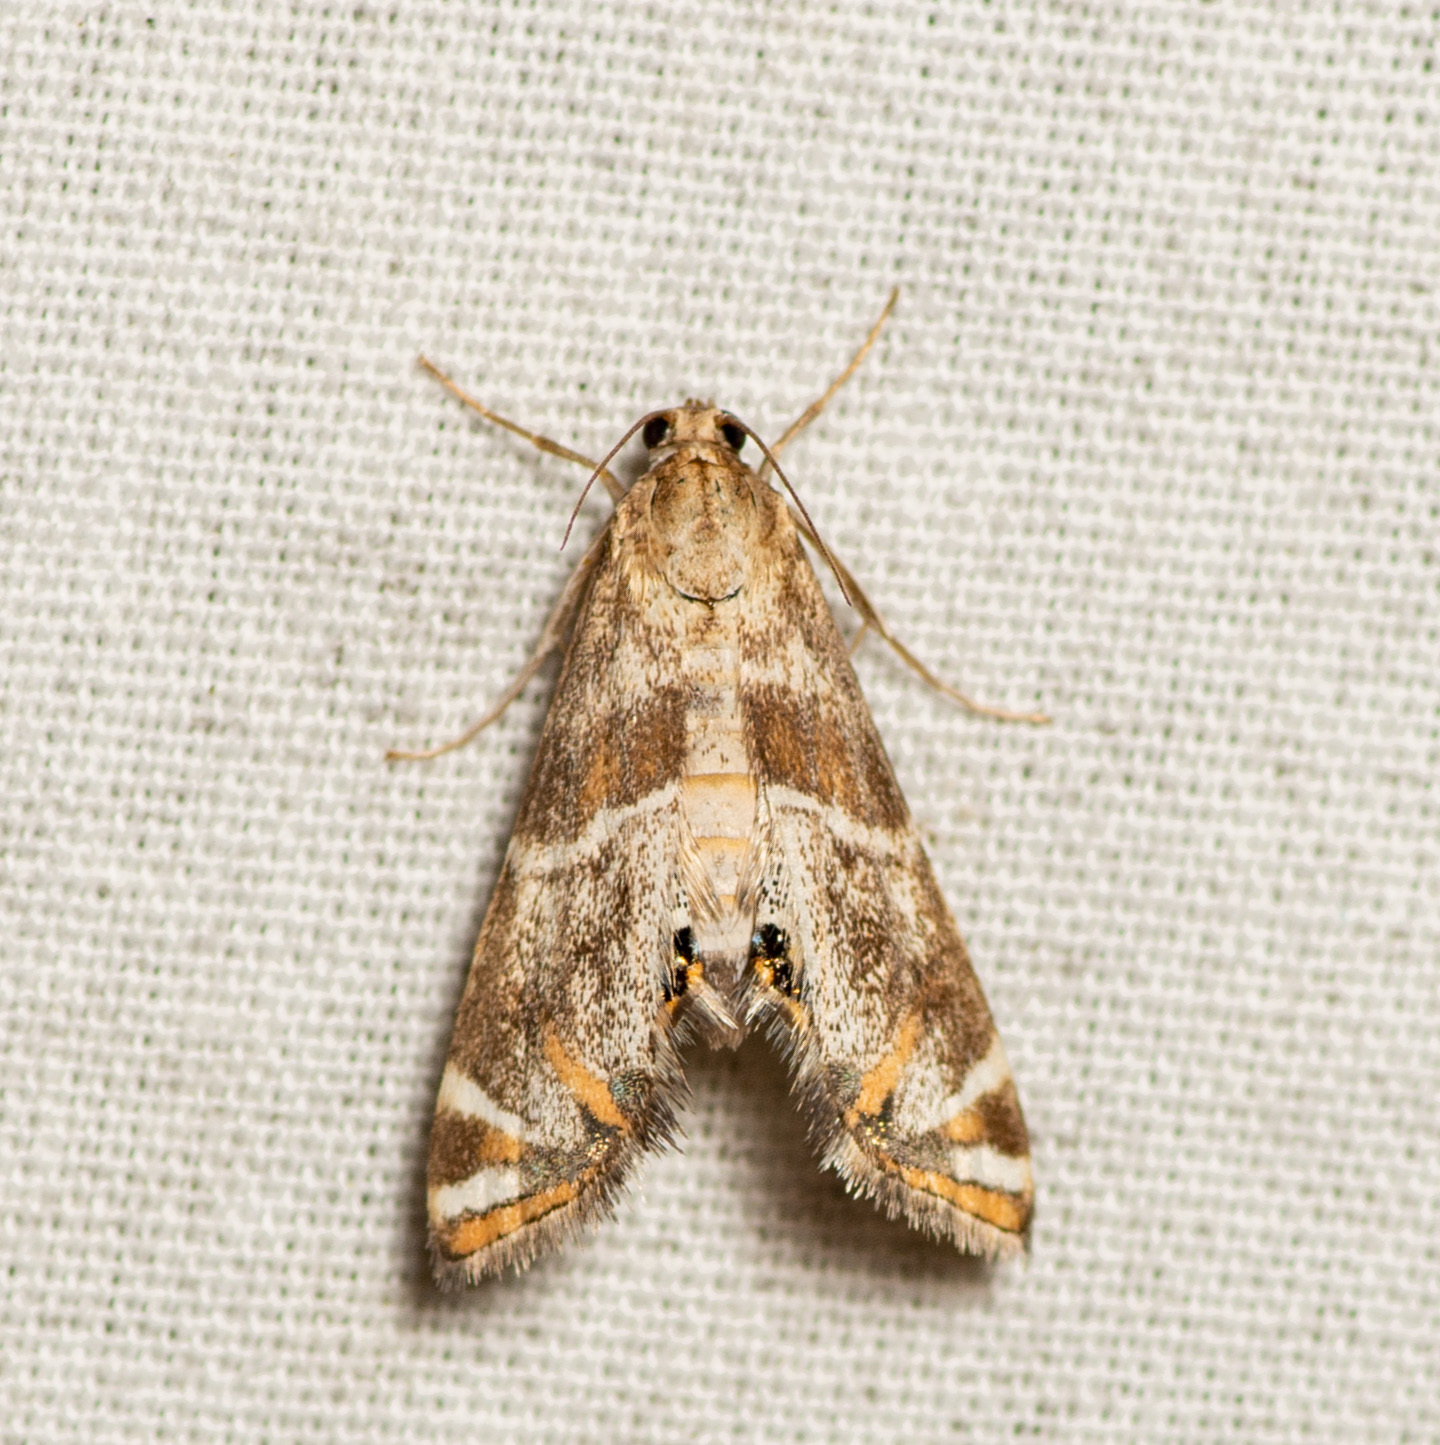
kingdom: Animalia
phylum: Arthropoda
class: Insecta
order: Lepidoptera
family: Crambidae
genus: Petrophila
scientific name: Petrophila jaliscalis
